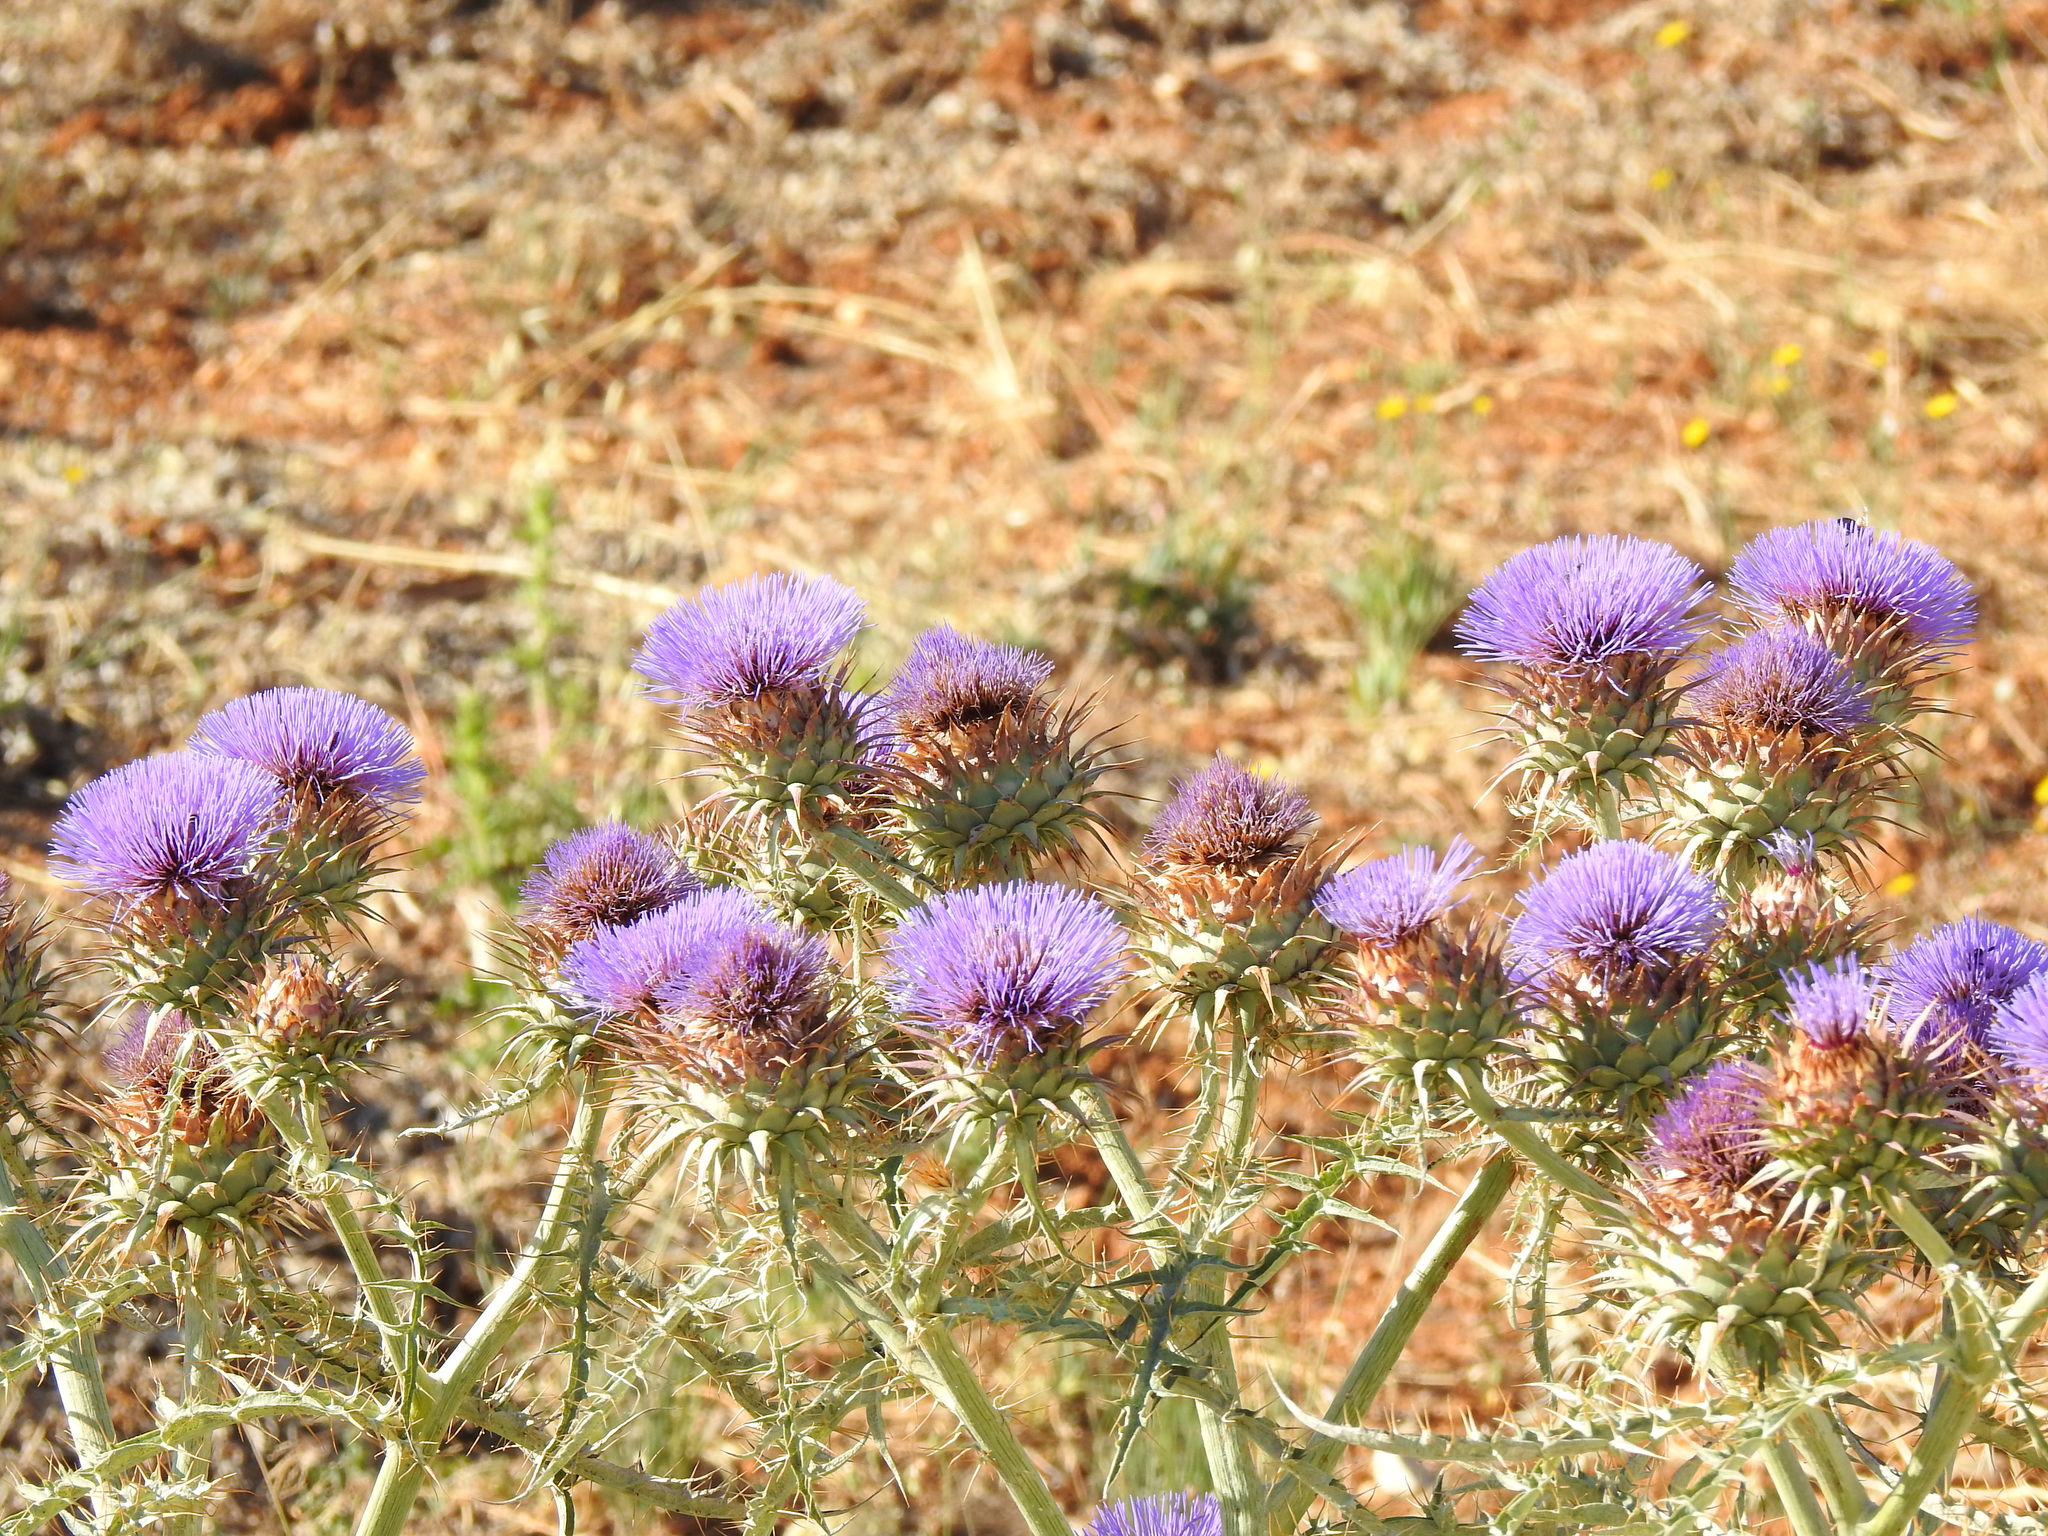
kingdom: Plantae
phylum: Tracheophyta
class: Magnoliopsida
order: Asterales
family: Asteraceae
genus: Cynara
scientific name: Cynara cardunculus
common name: Globe artichoke
